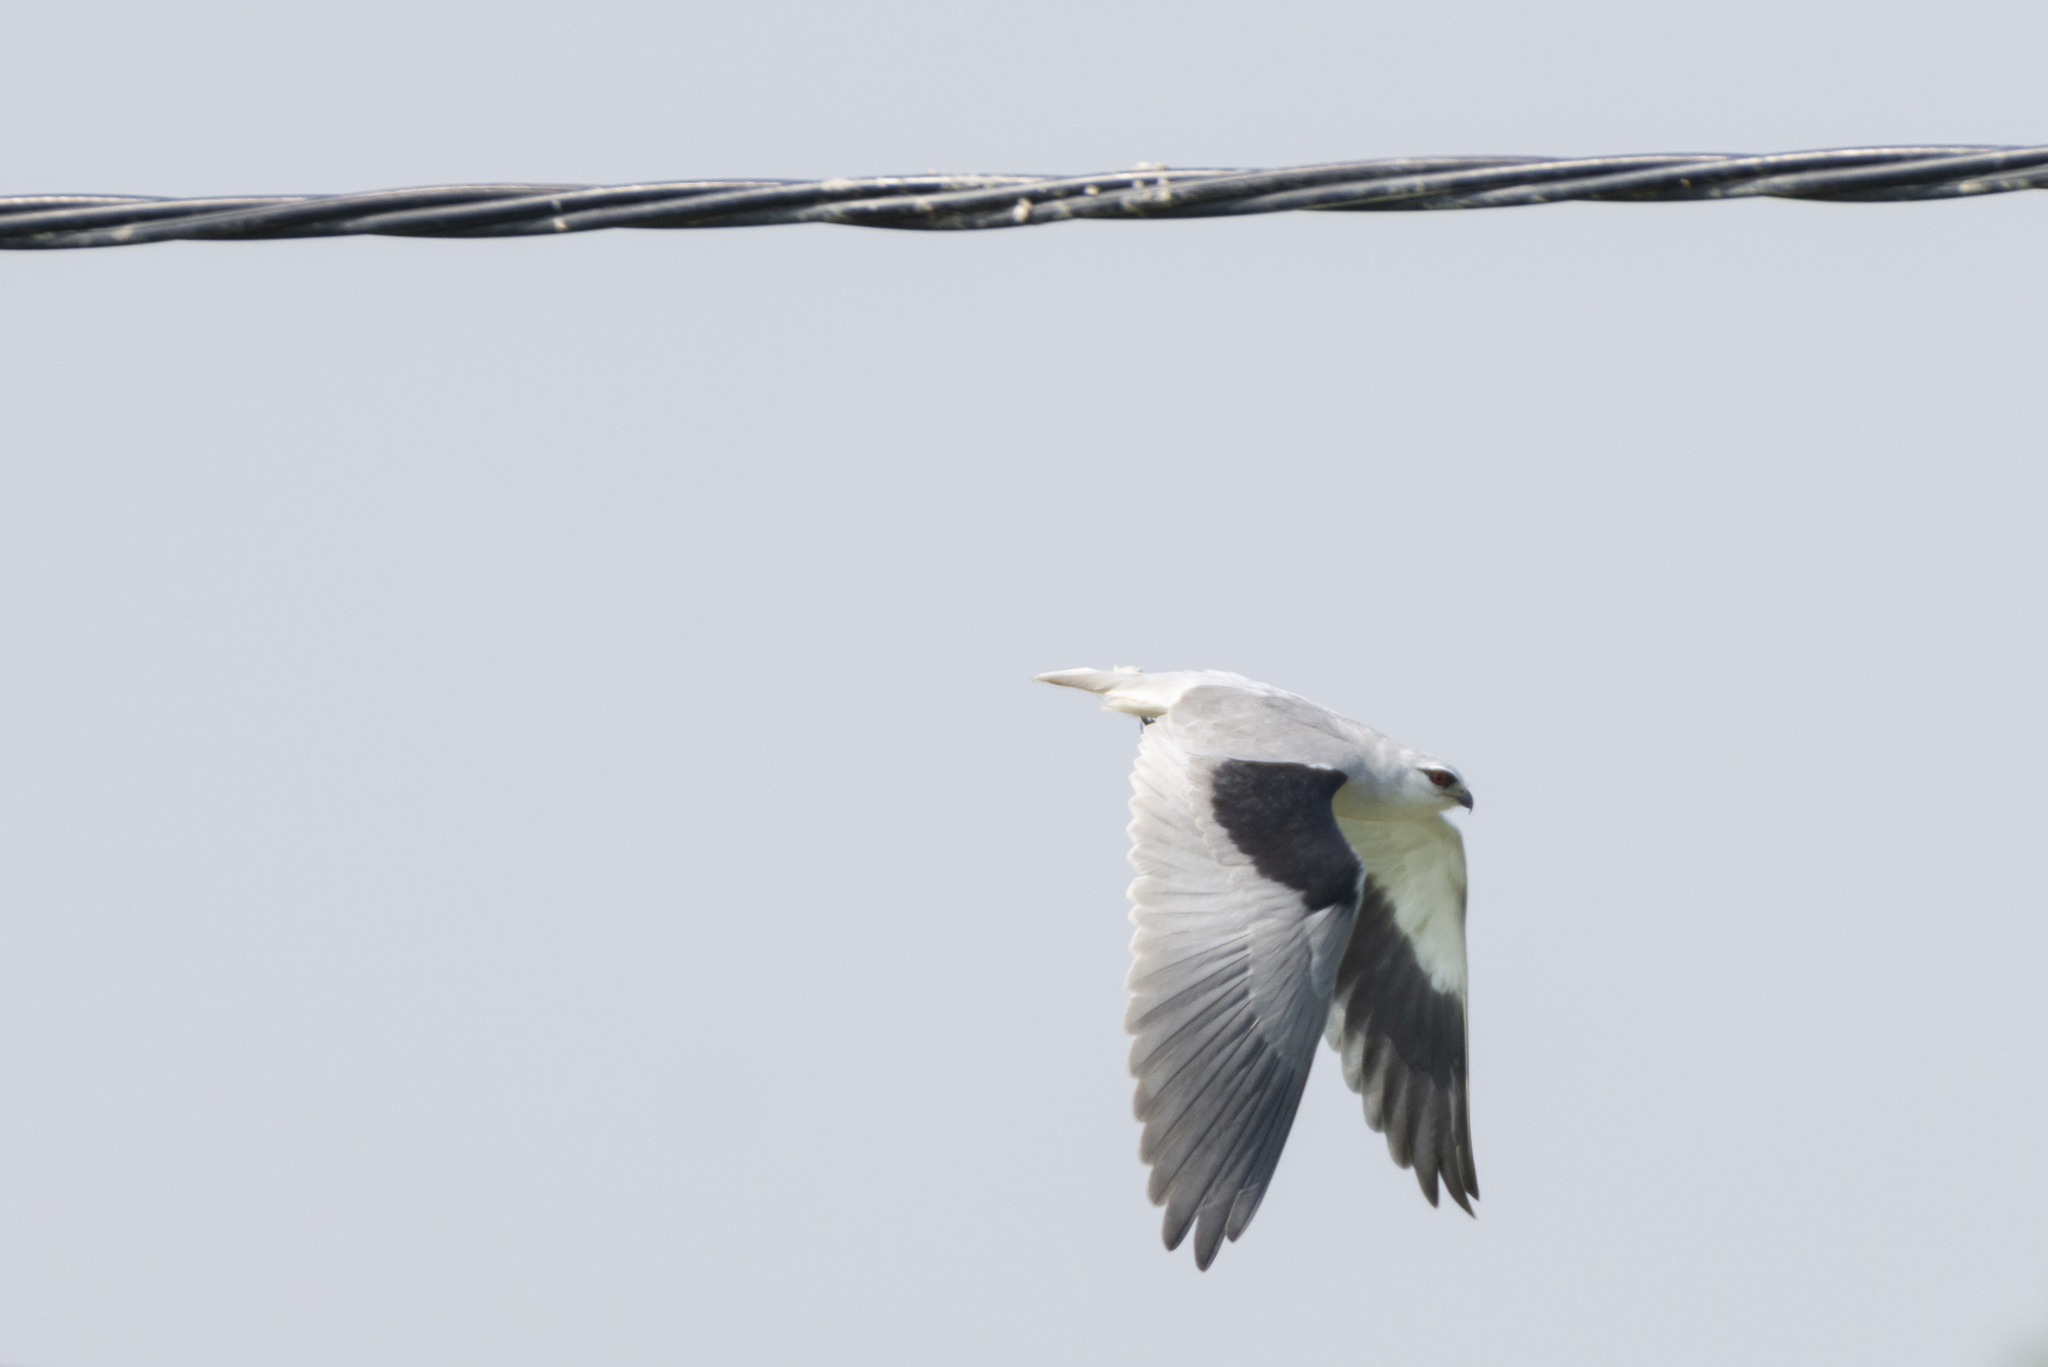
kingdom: Animalia
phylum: Chordata
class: Aves
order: Accipitriformes
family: Accipitridae
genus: Elanus
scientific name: Elanus caeruleus
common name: Black-winged kite
